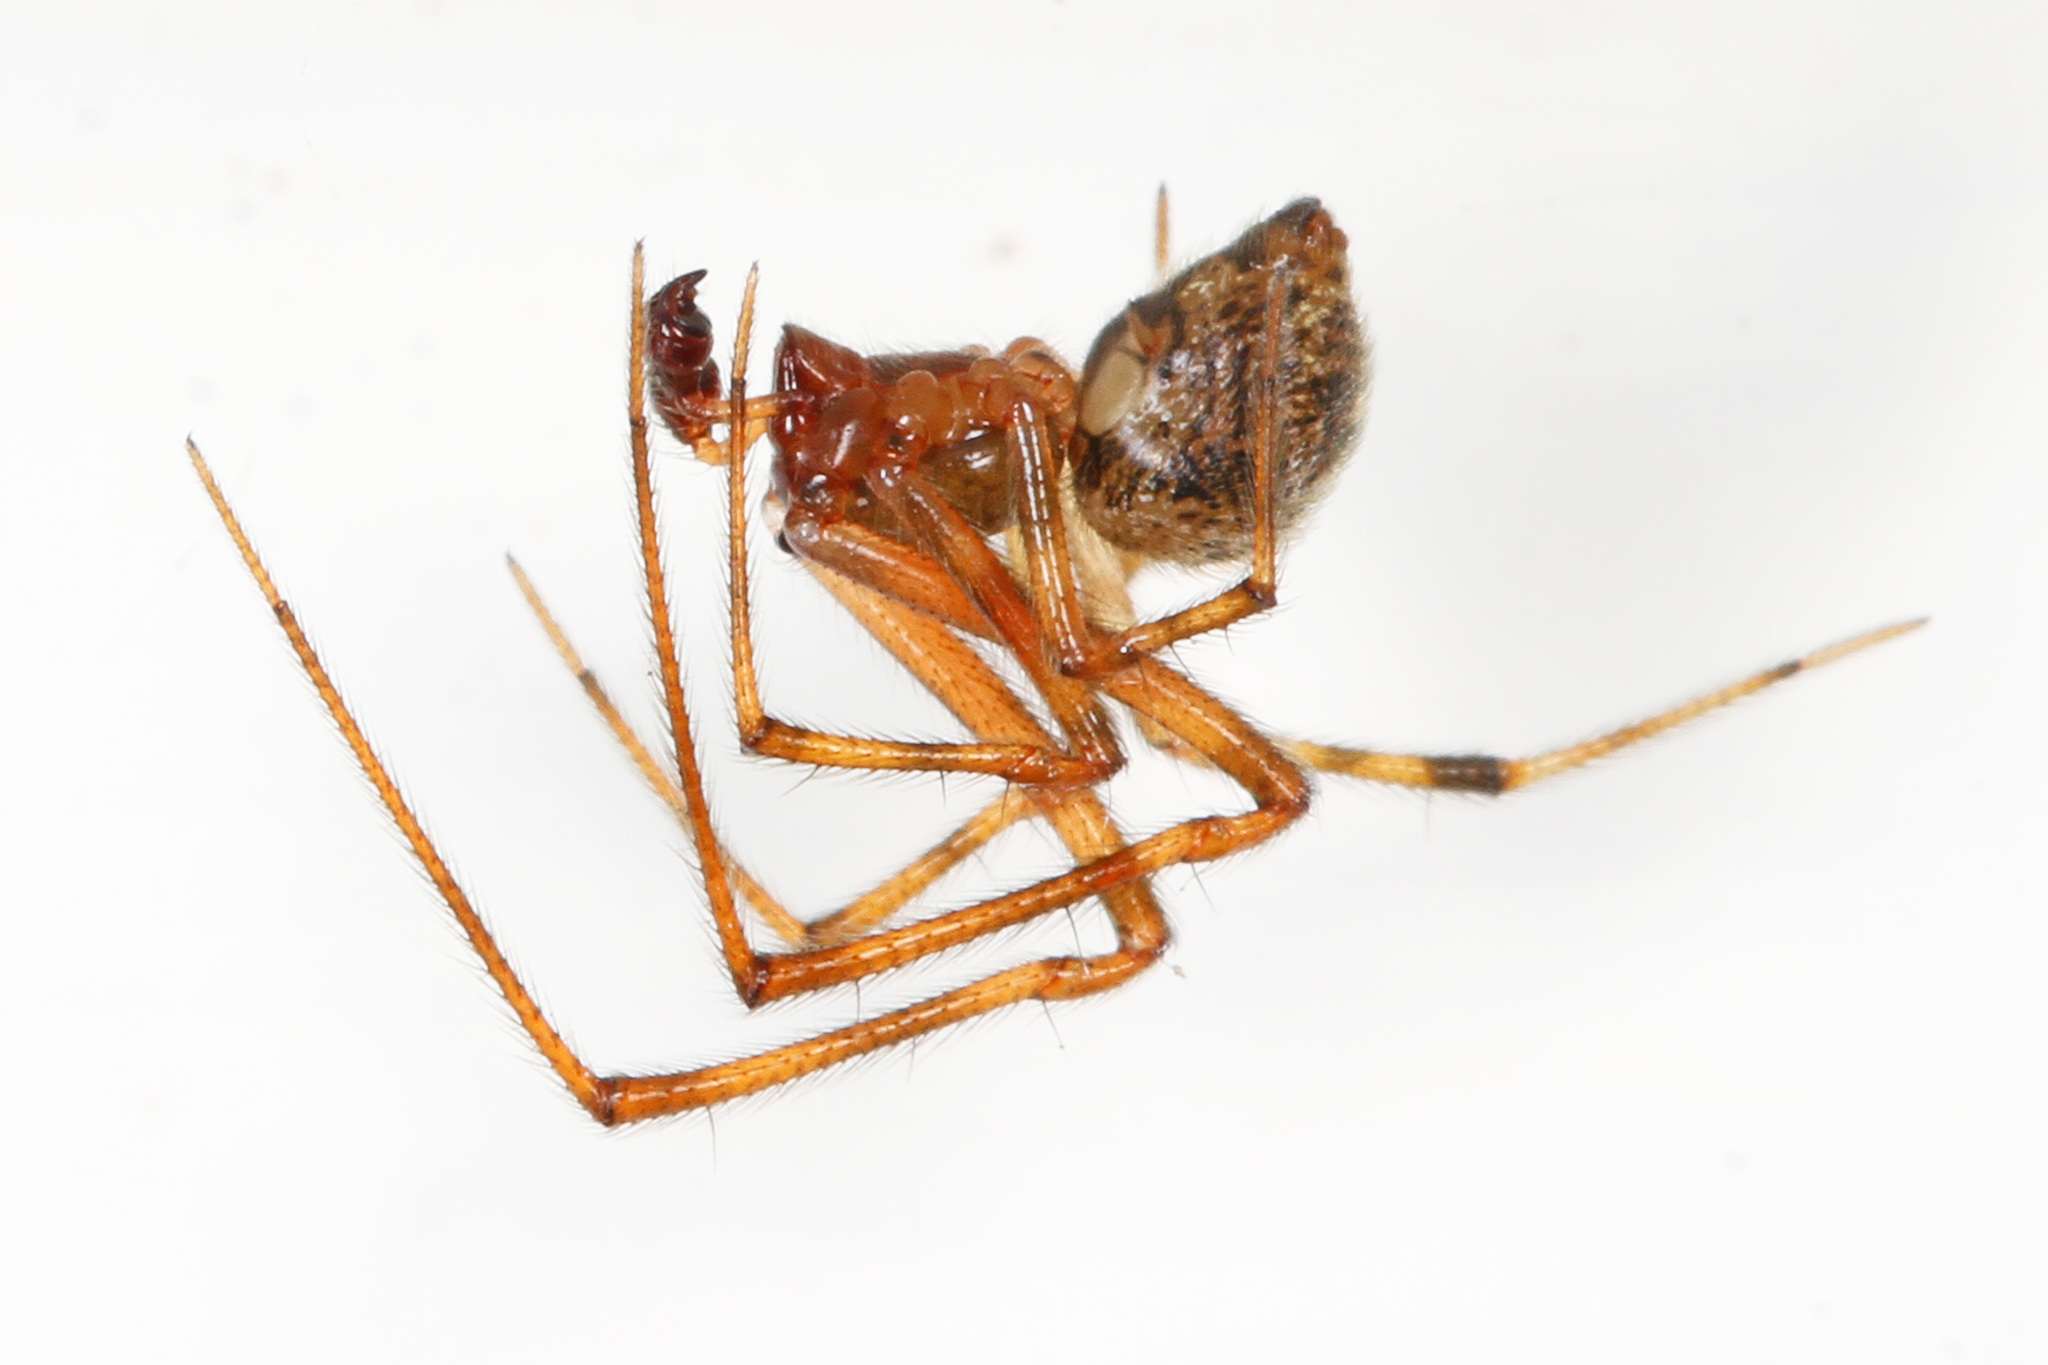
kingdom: Animalia
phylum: Arthropoda
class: Arachnida
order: Araneae
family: Theridiidae
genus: Parasteatoda
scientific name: Parasteatoda tepidariorum
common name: Common house spider
